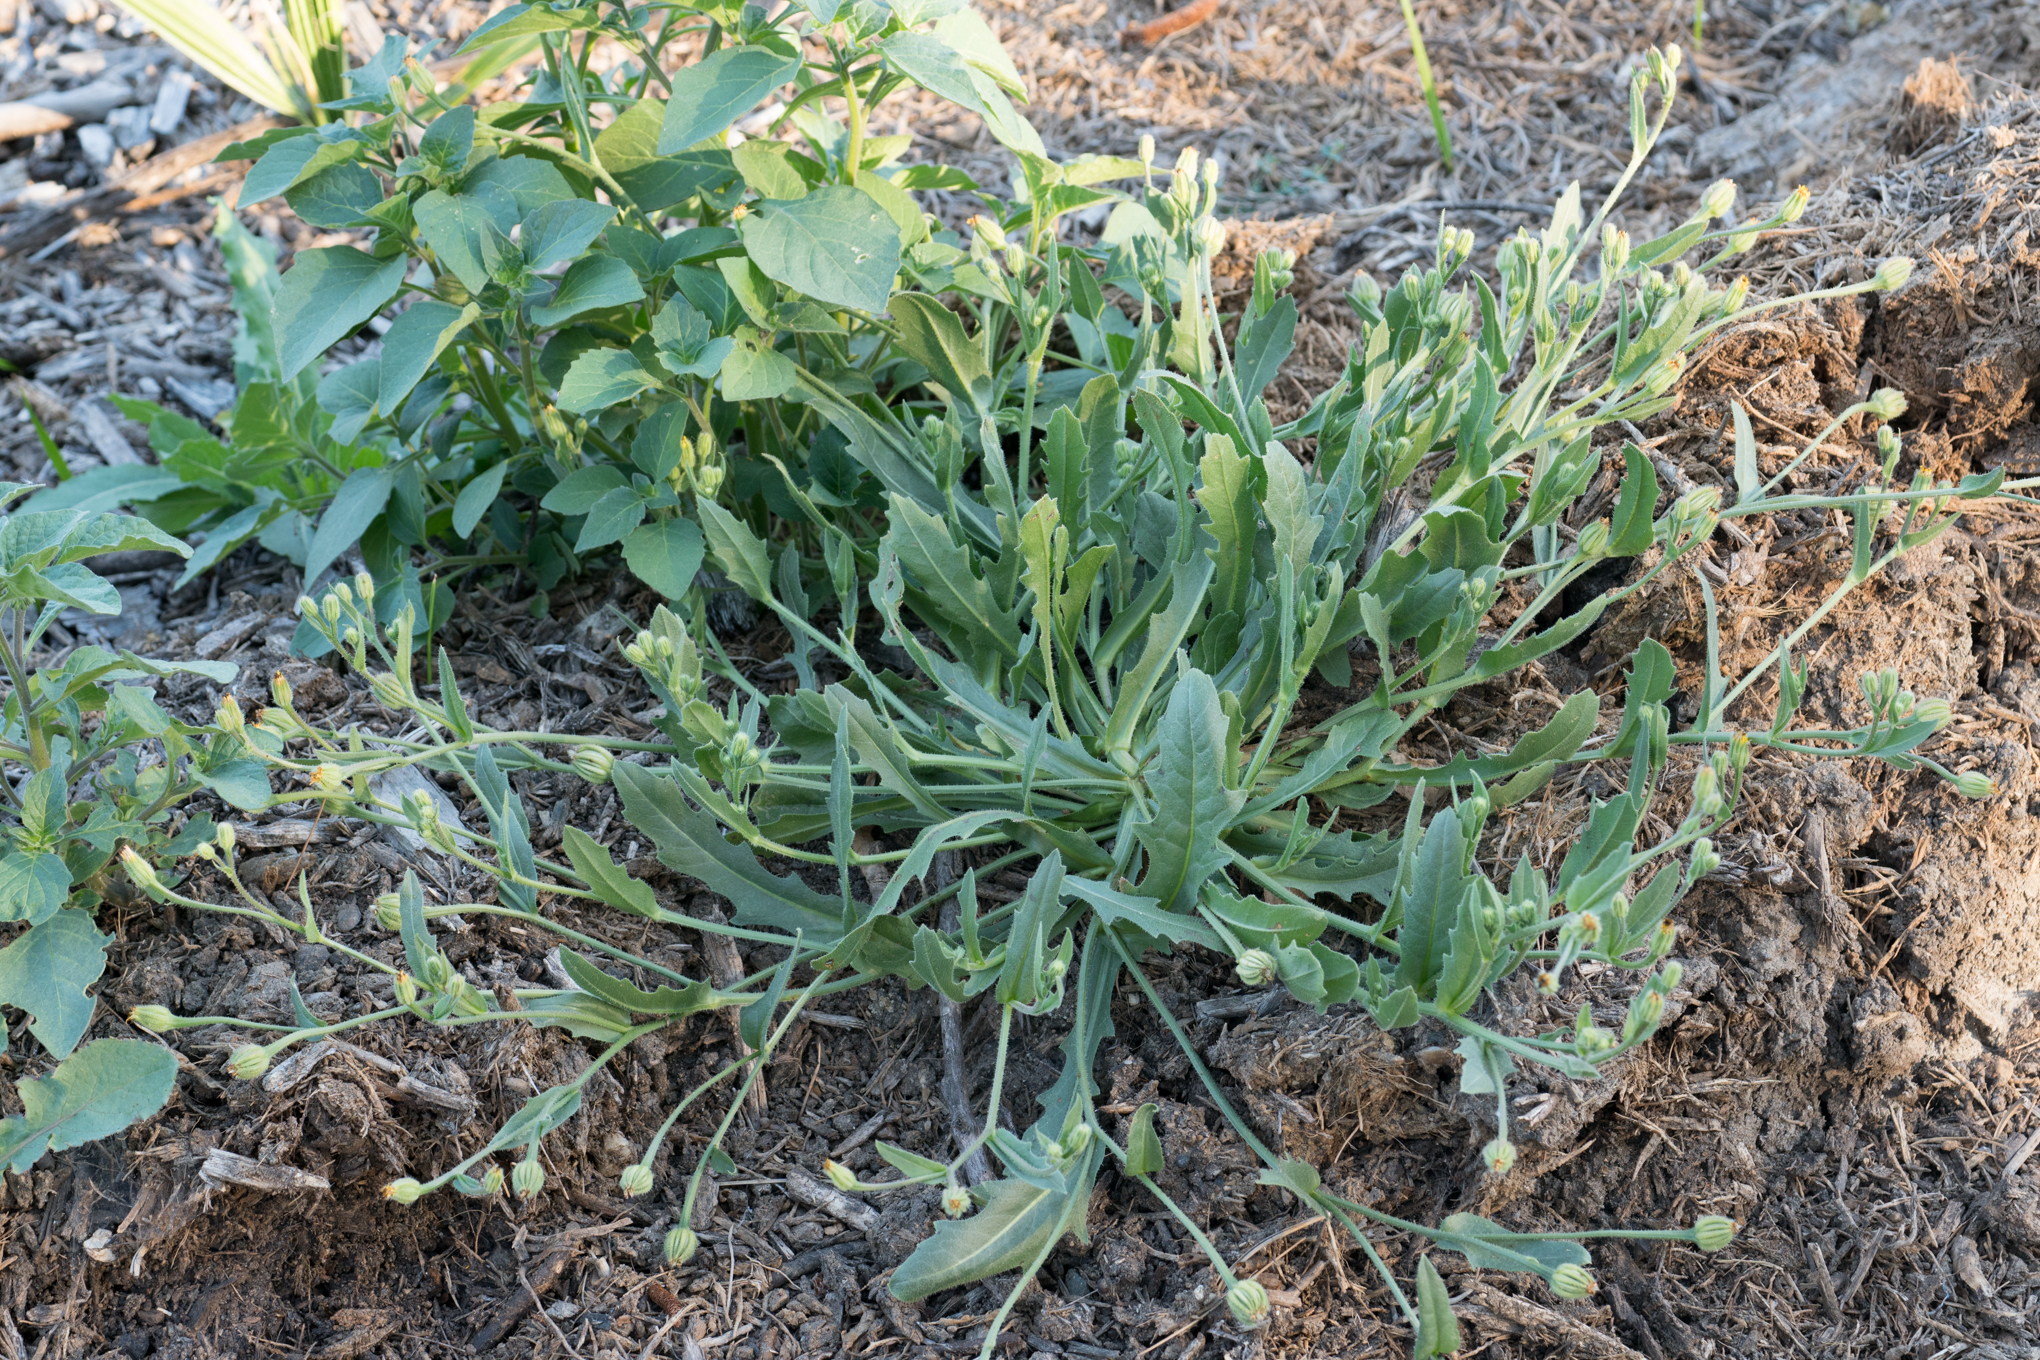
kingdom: Plantae
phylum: Tracheophyta
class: Magnoliopsida
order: Asterales
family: Asteraceae
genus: Hedypnois
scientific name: Hedypnois rhagadioloides
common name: Cretan weed
